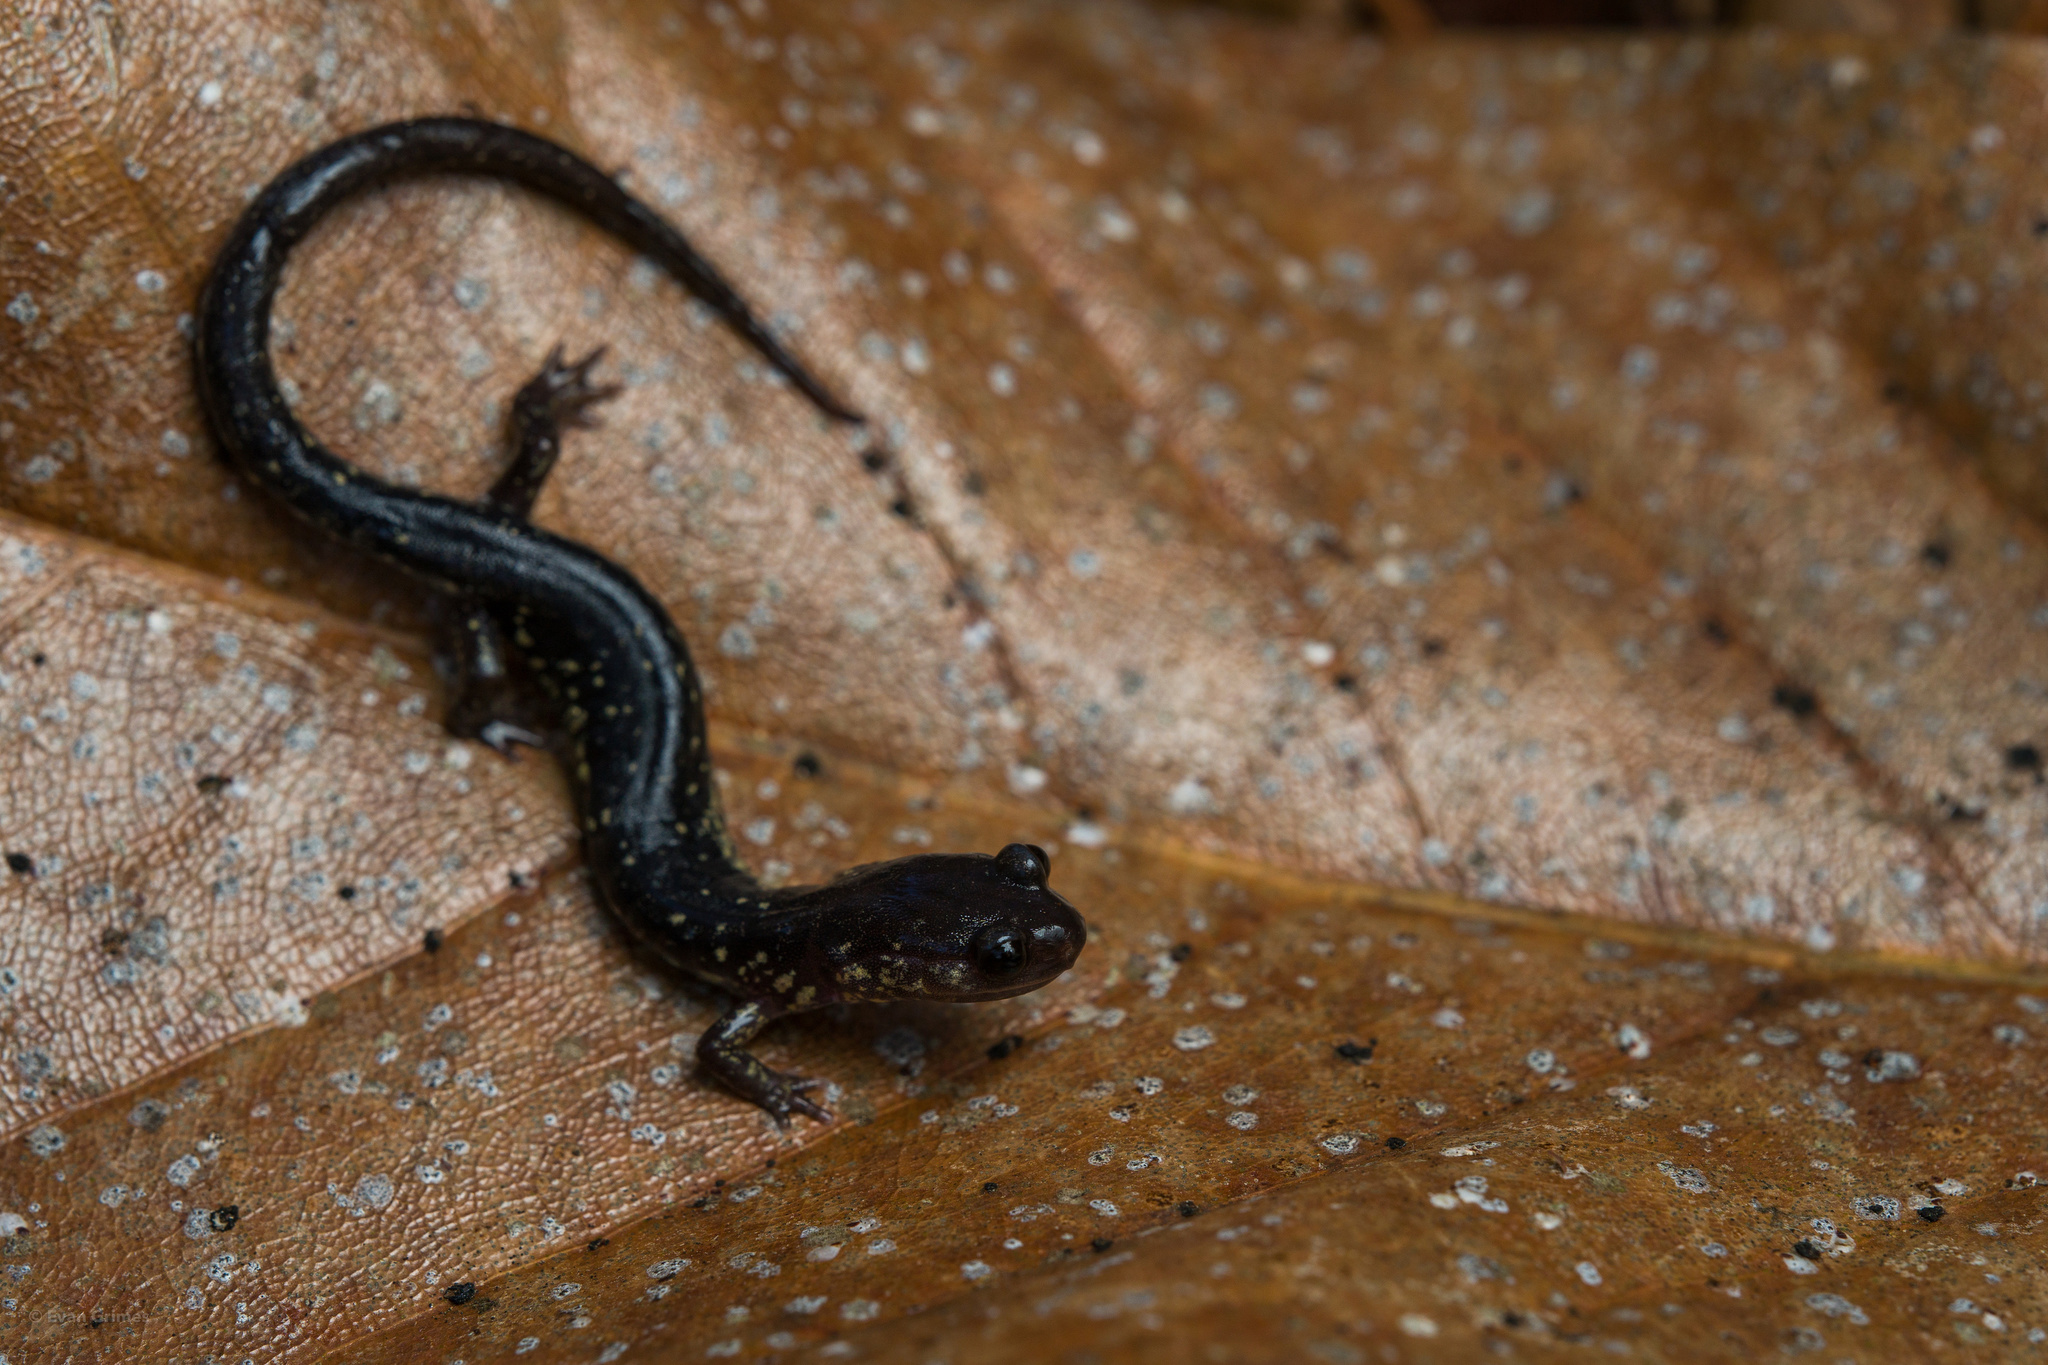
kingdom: Animalia
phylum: Chordata
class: Amphibia
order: Caudata
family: Plethodontidae
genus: Plethodon
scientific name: Plethodon mississippi
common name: Mississippi slimy salamander
